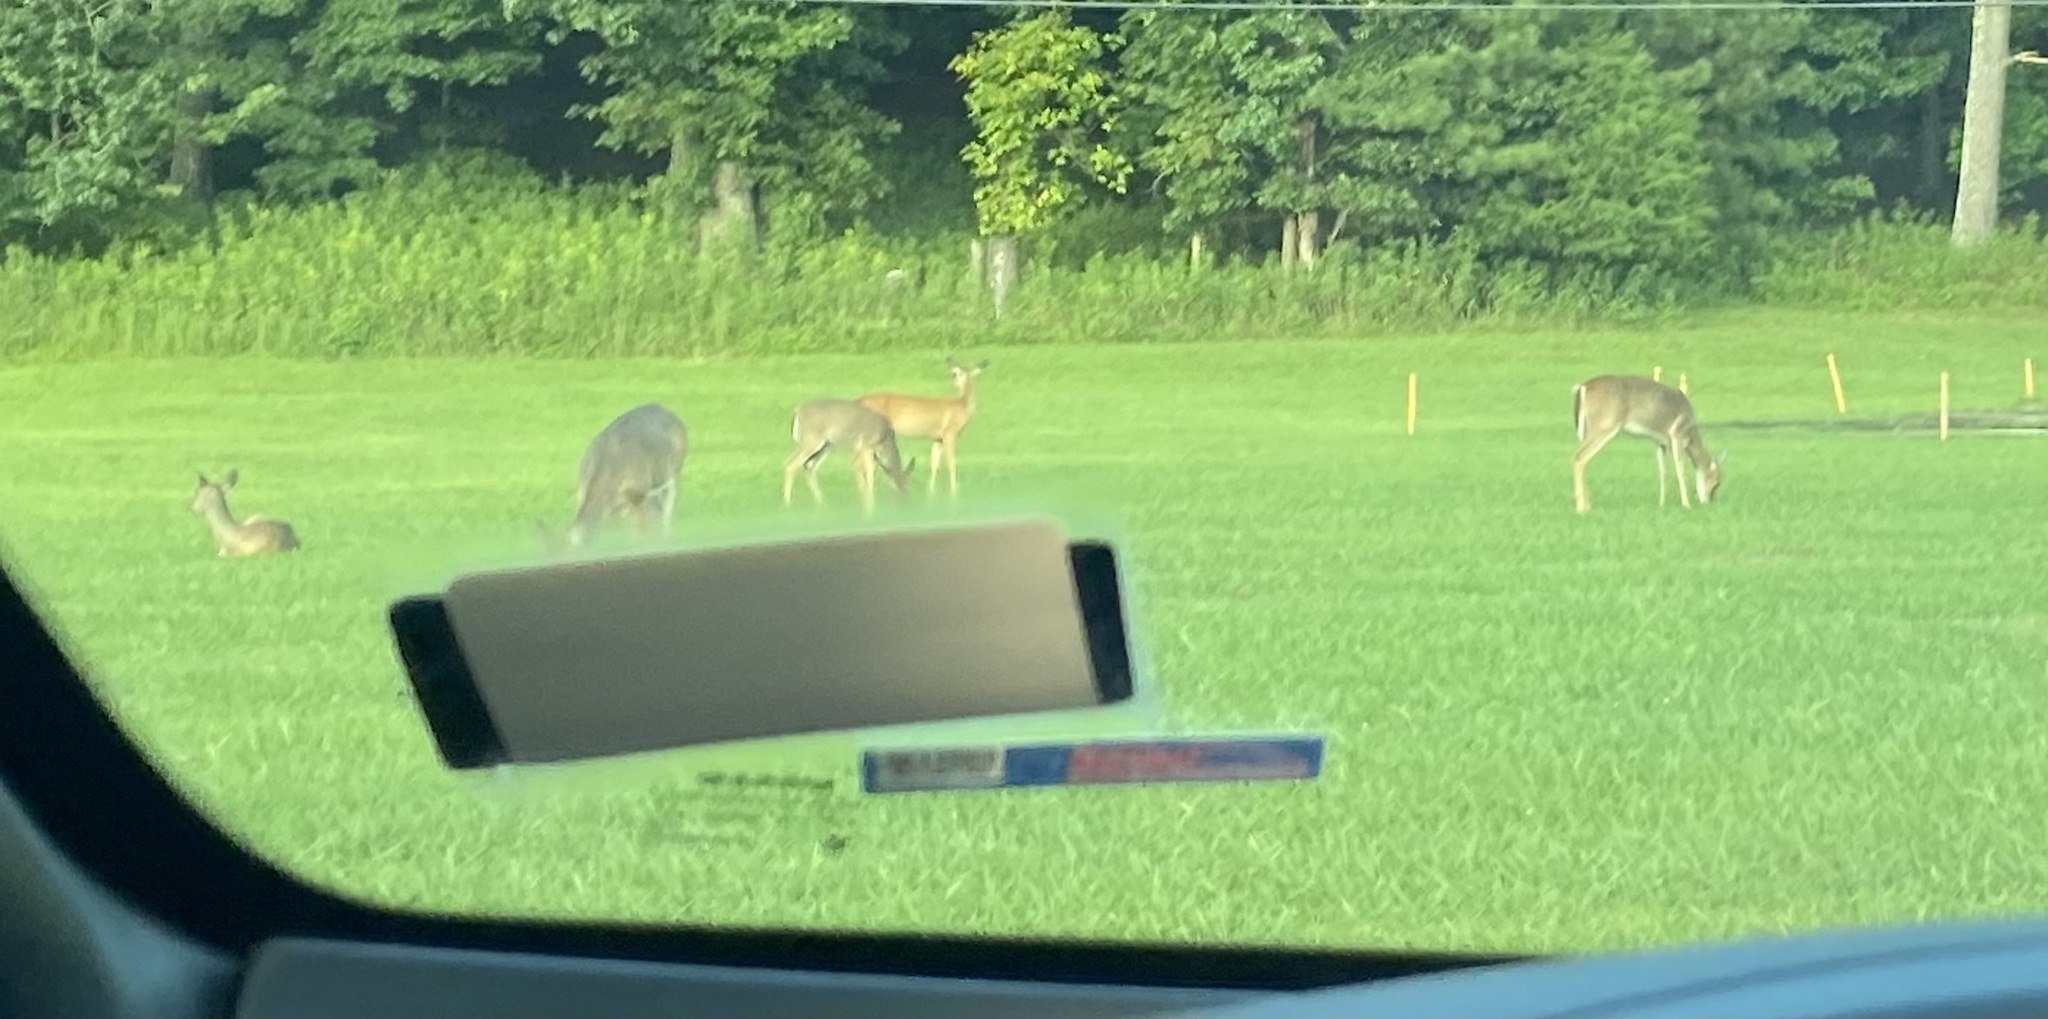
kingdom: Animalia
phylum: Chordata
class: Mammalia
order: Artiodactyla
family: Cervidae
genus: Odocoileus
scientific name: Odocoileus virginianus
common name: White-tailed deer
